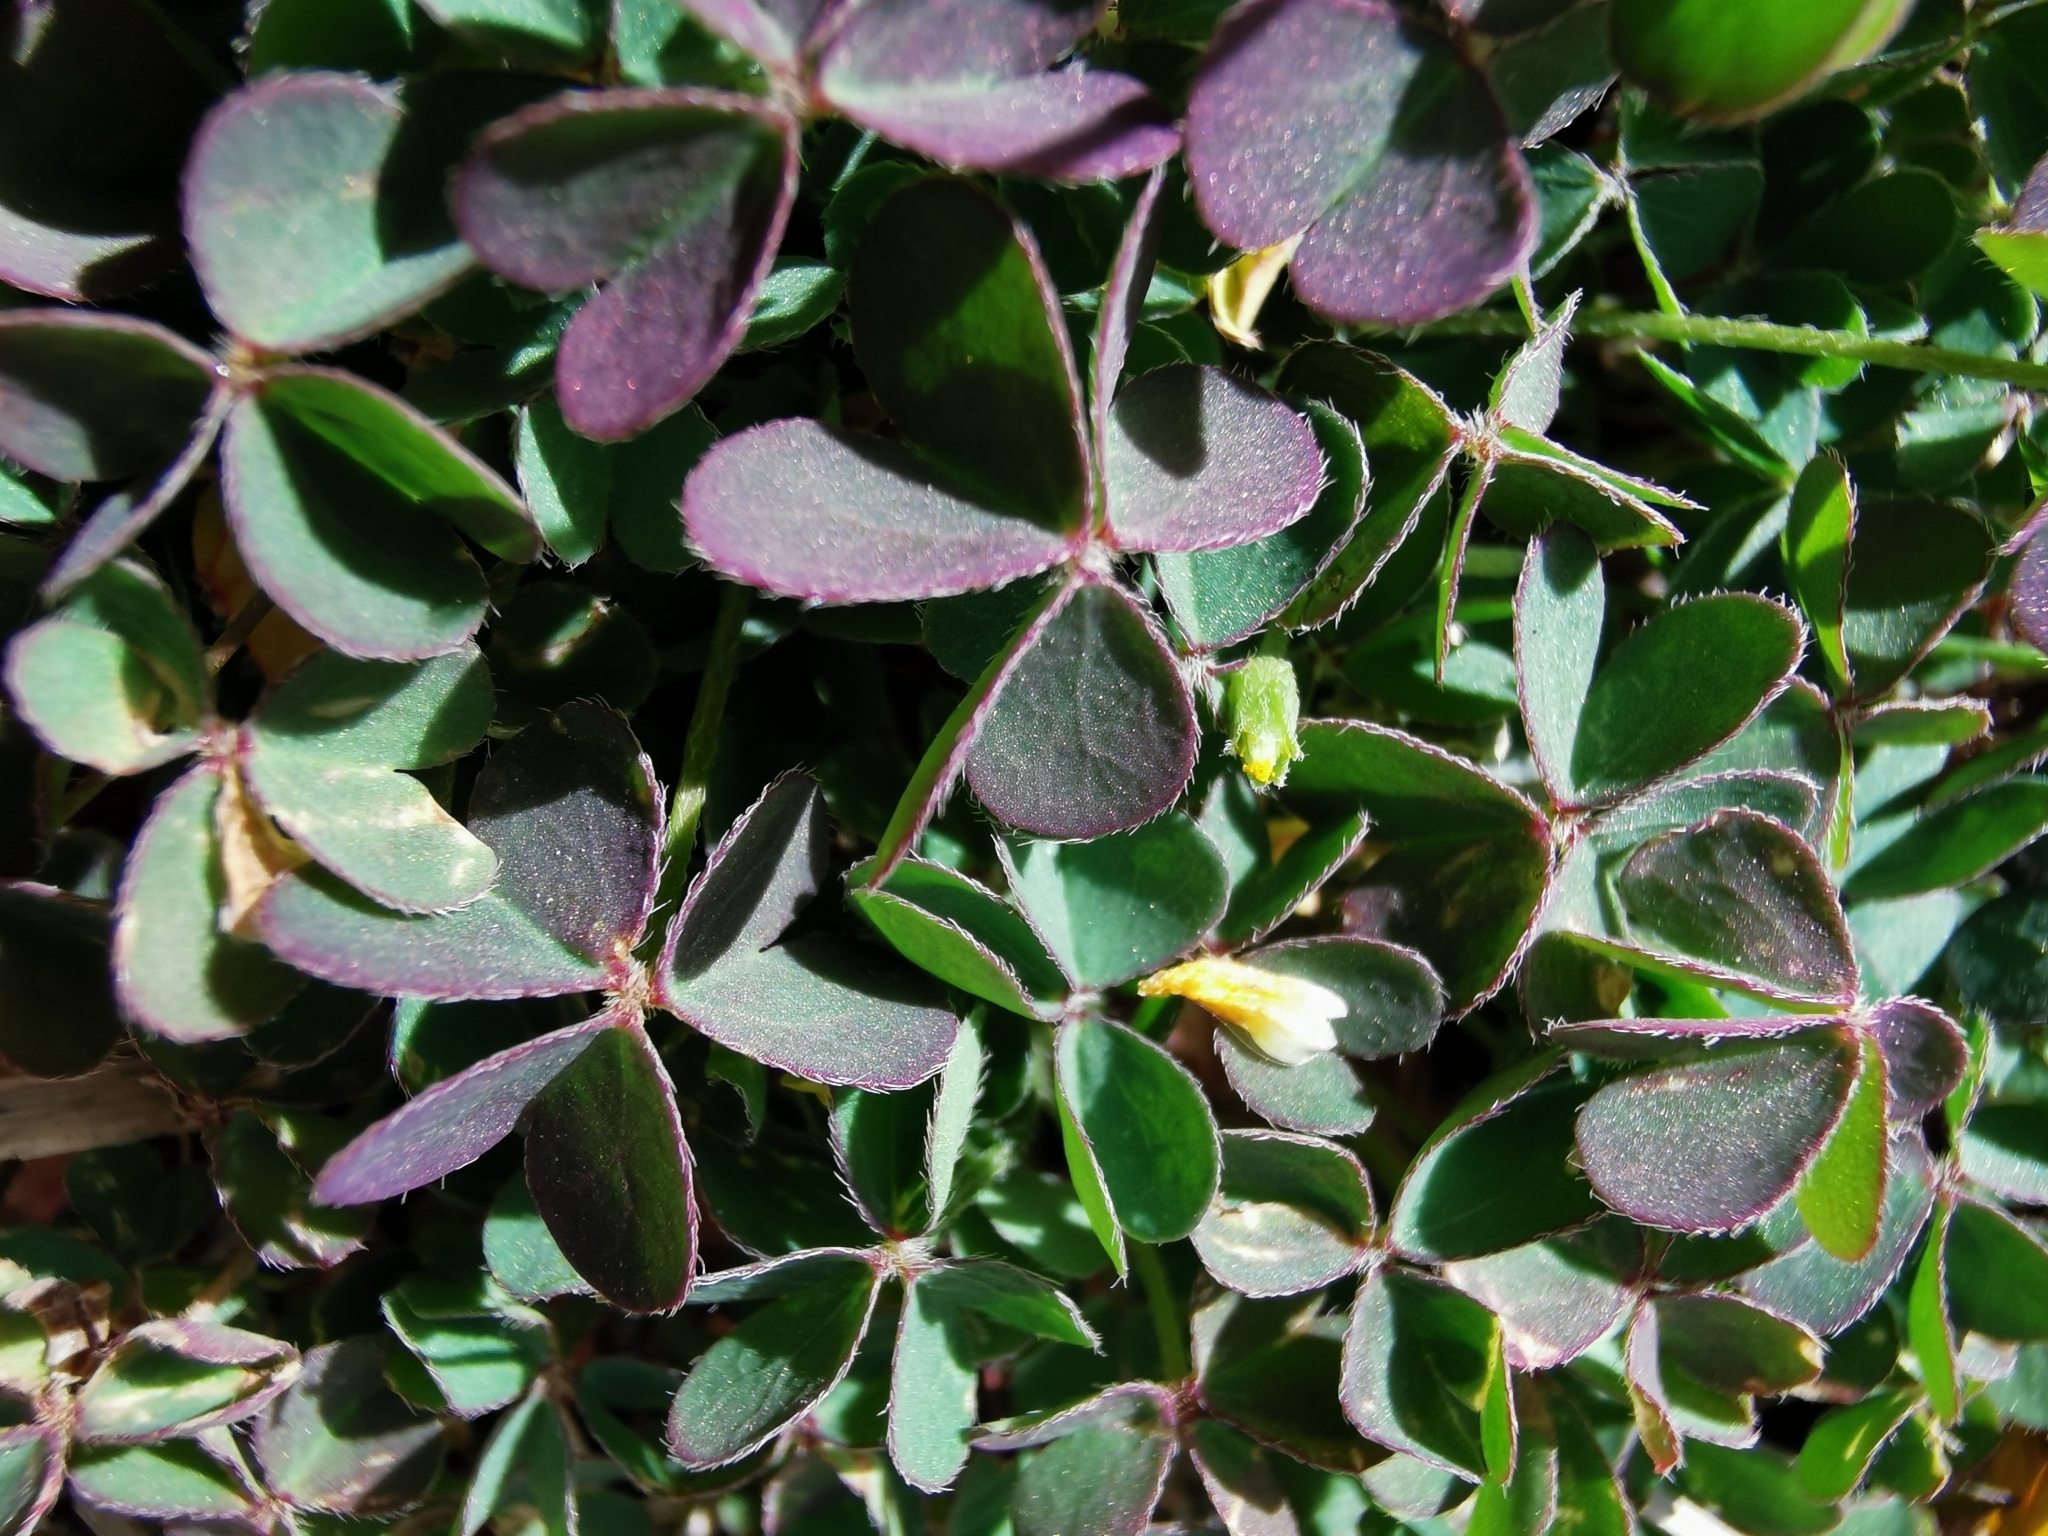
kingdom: Plantae
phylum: Tracheophyta
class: Magnoliopsida
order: Oxalidales
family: Oxalidaceae
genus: Oxalis
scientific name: Oxalis corniculata
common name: Procumbent yellow-sorrel
